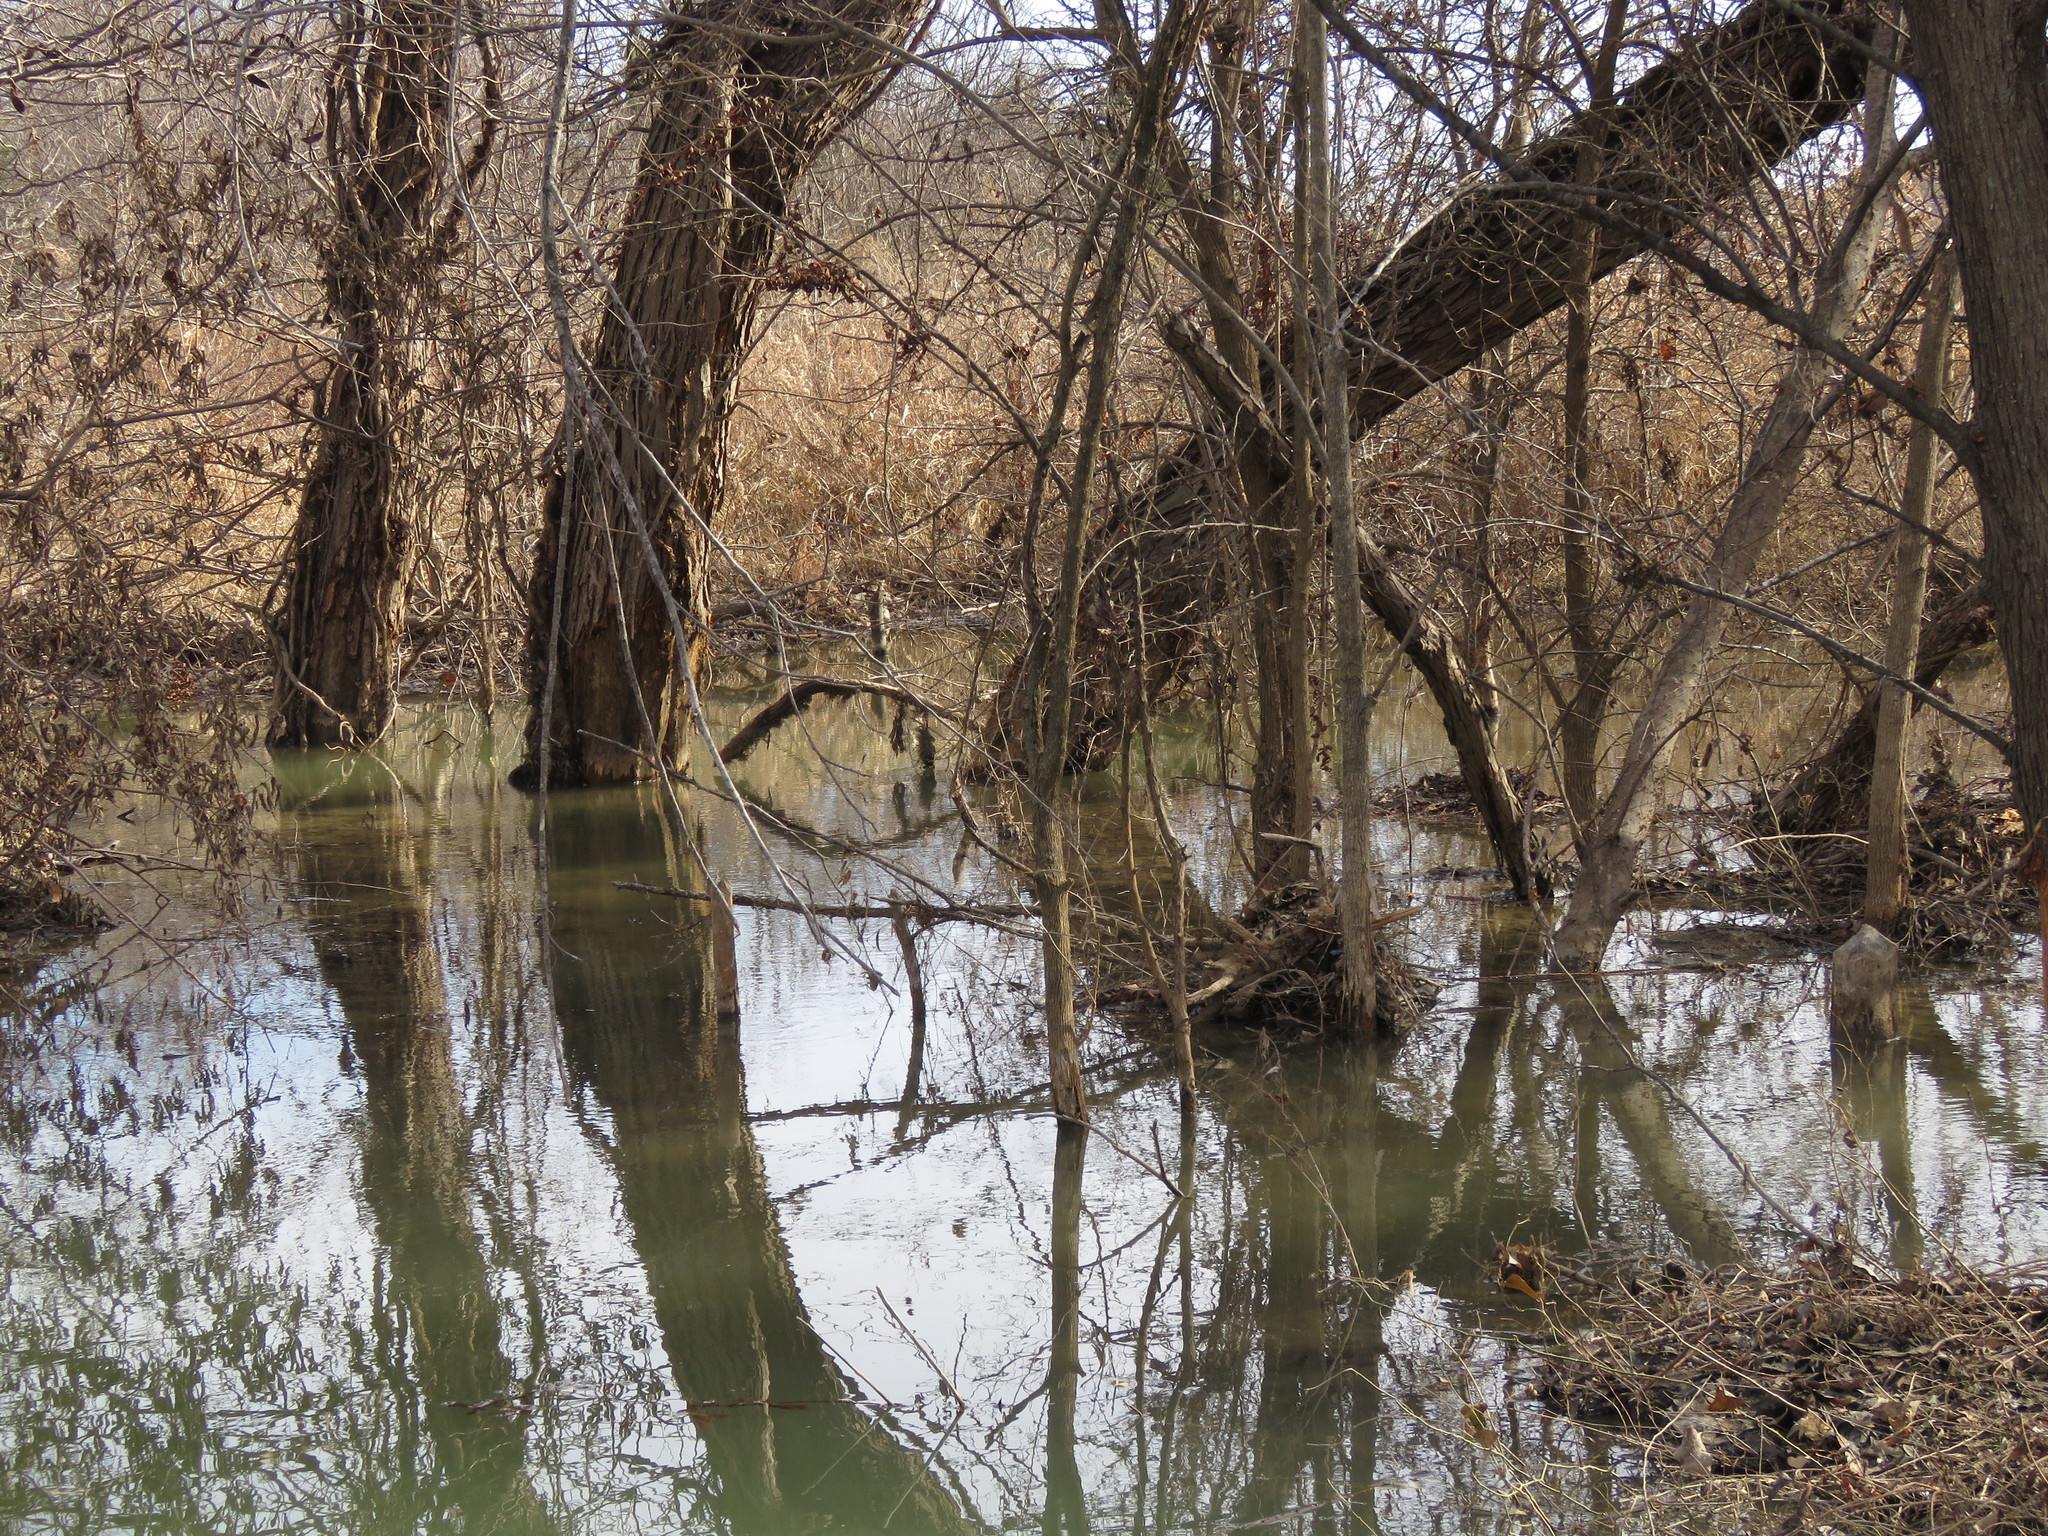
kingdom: Animalia
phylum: Chordata
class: Mammalia
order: Rodentia
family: Castoridae
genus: Castor
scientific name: Castor canadensis
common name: American beaver
